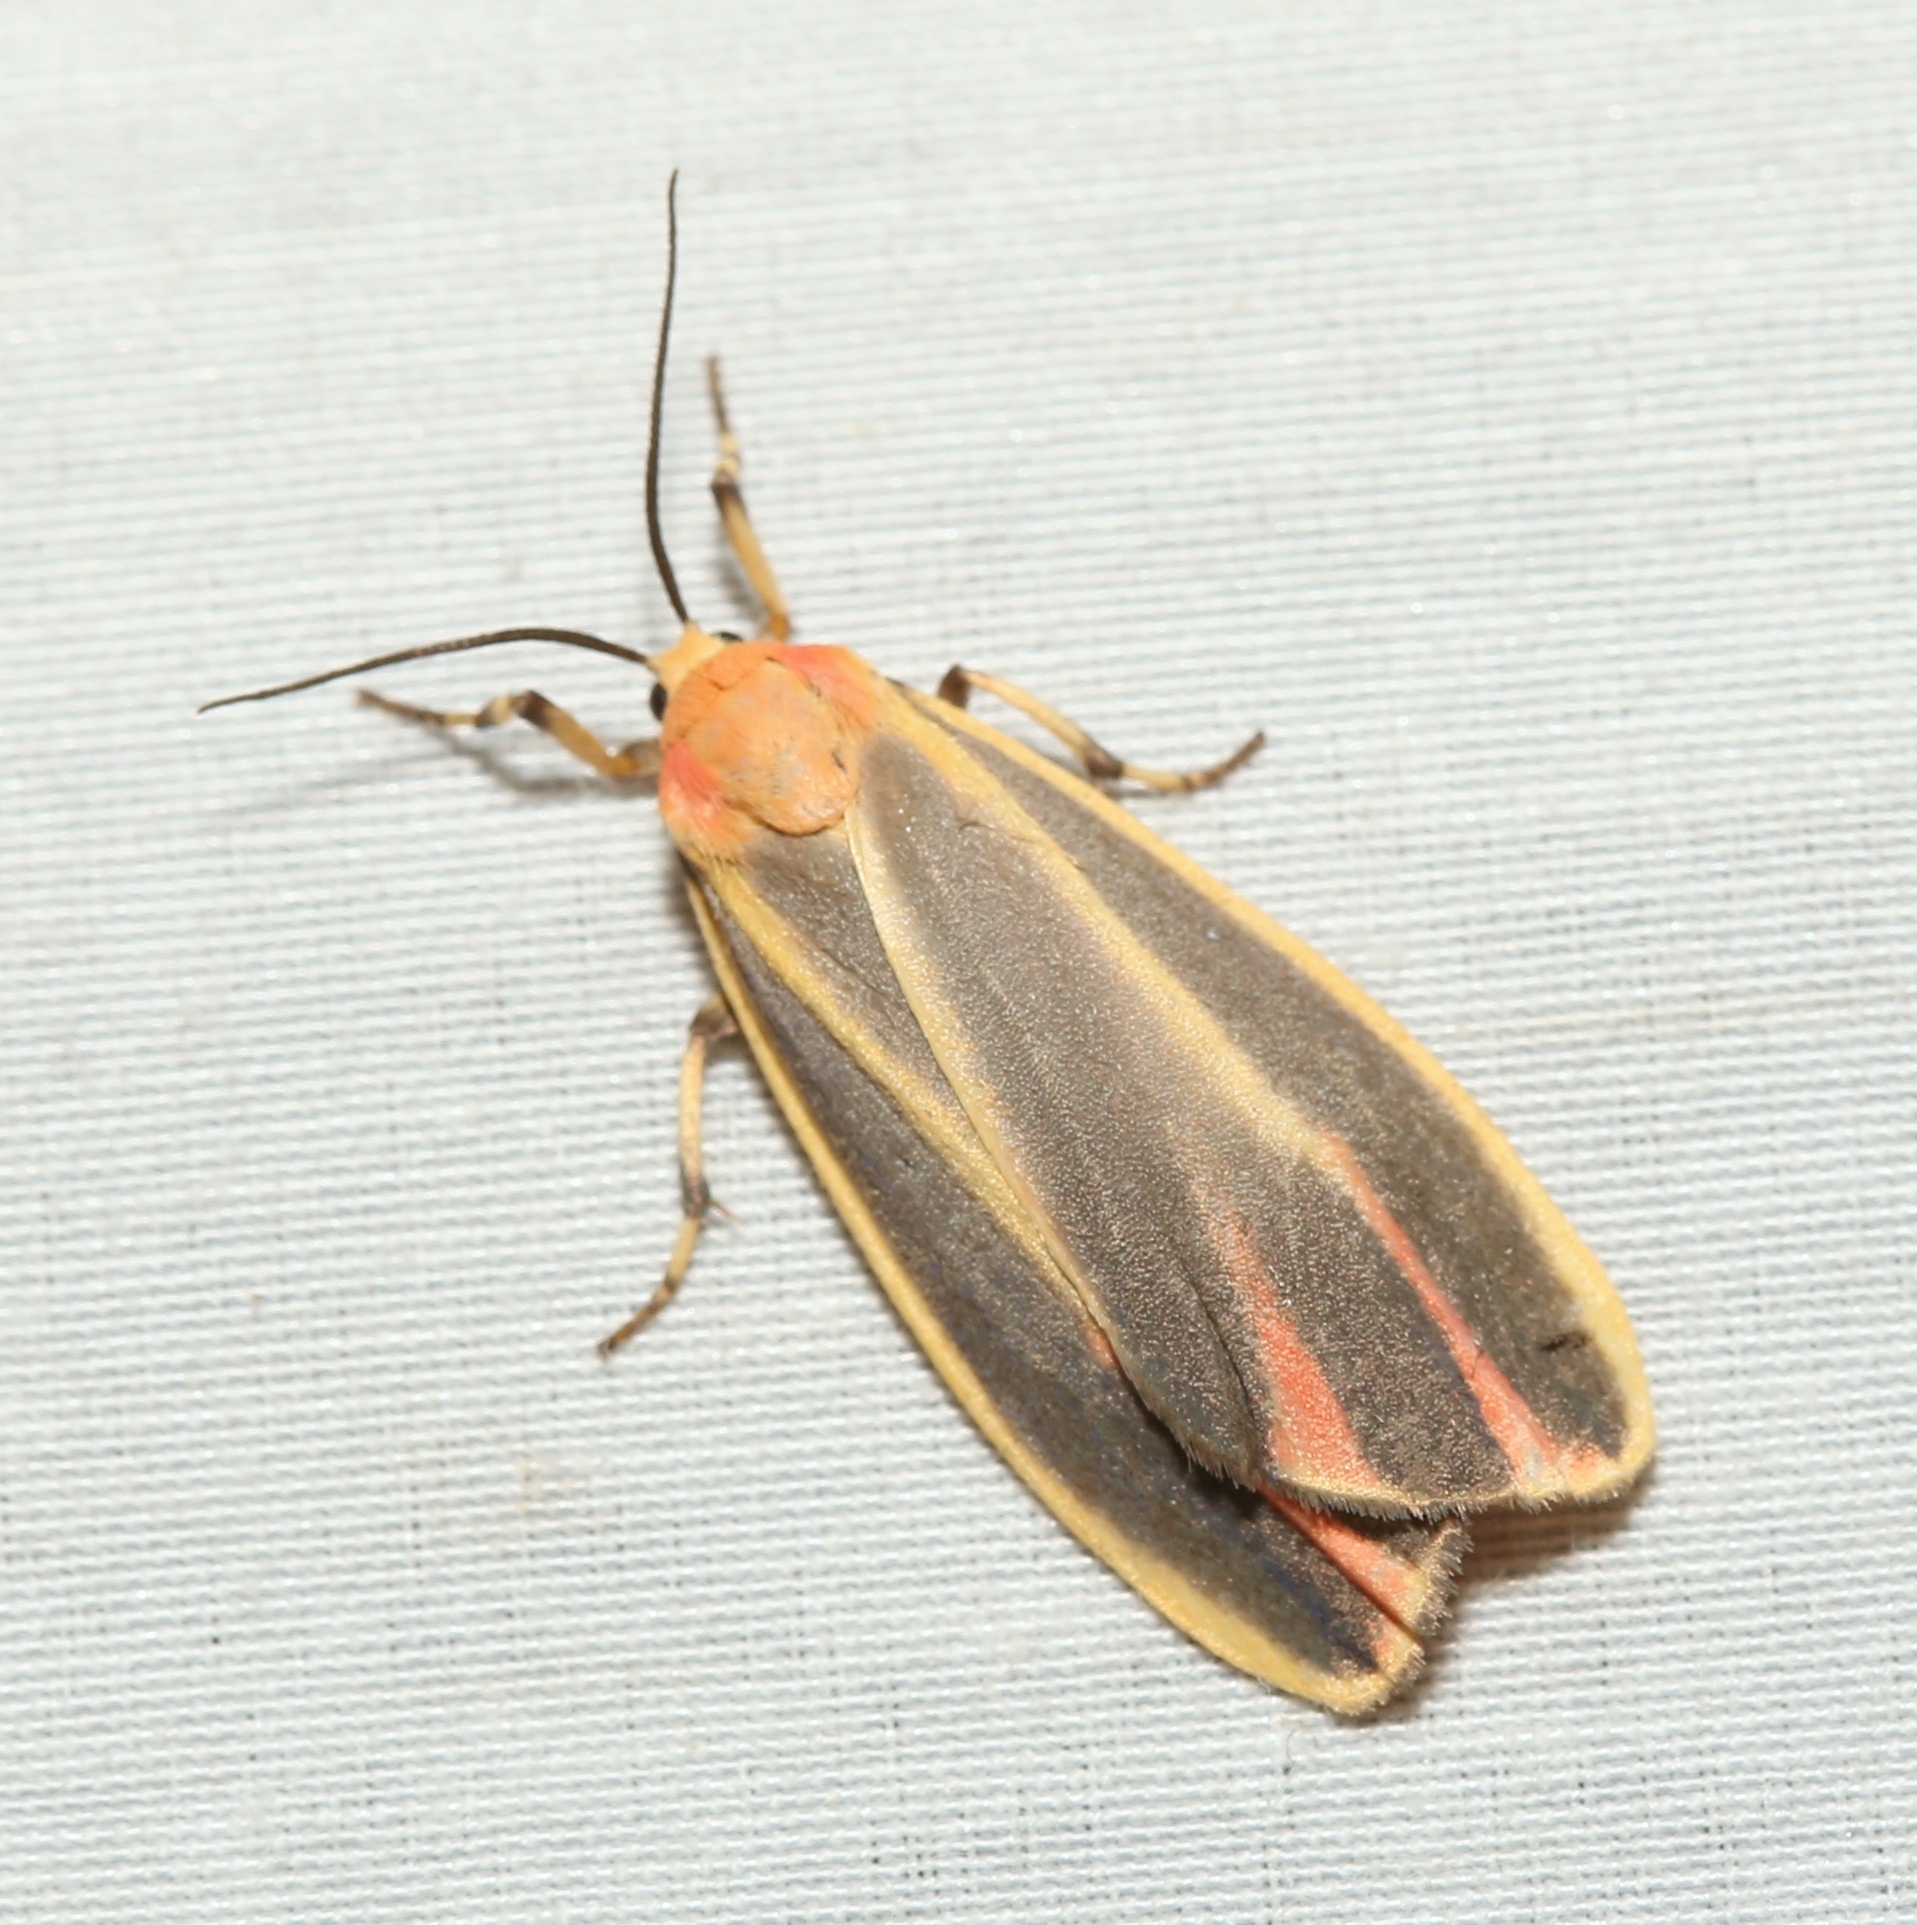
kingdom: Animalia
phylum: Arthropoda
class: Insecta
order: Lepidoptera
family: Erebidae
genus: Hypoprepia
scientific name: Hypoprepia fucosa
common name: Painted lichen moth
